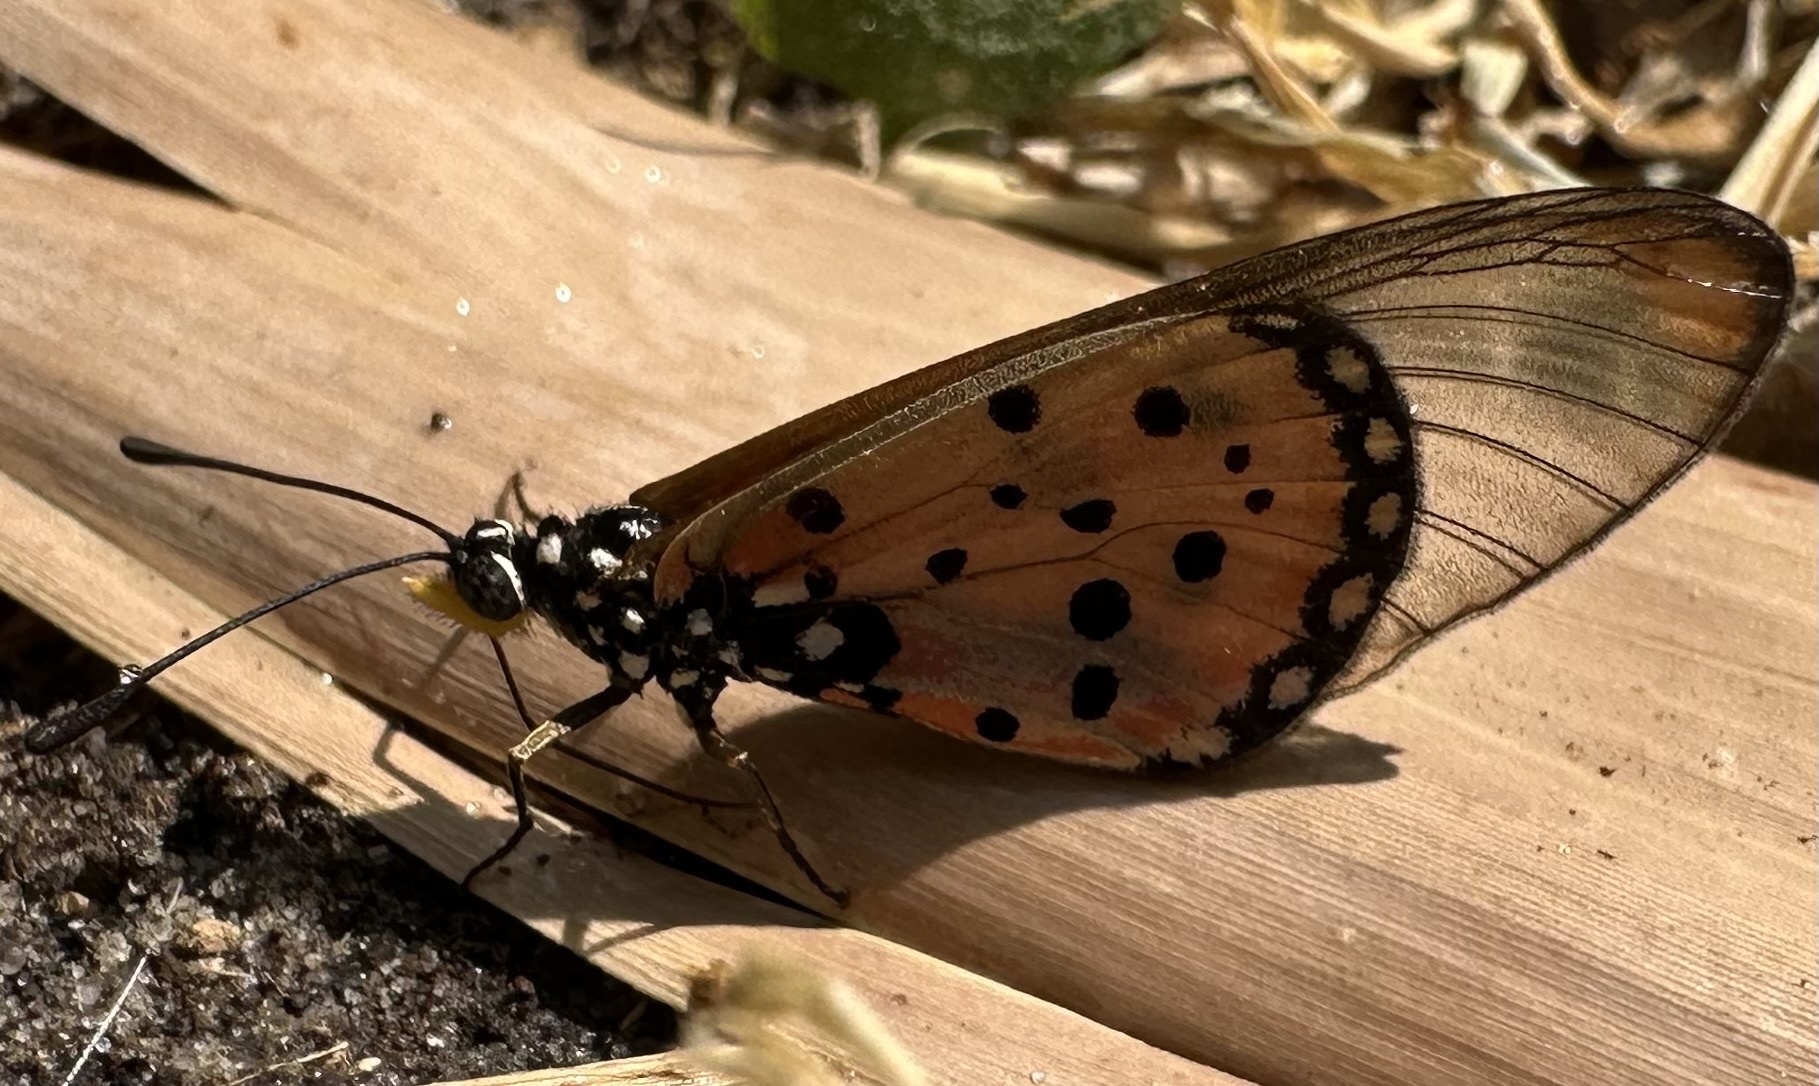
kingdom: Animalia
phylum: Arthropoda
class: Insecta
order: Lepidoptera
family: Nymphalidae
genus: Acraea
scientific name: Acraea neobule
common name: Dancing acraea
